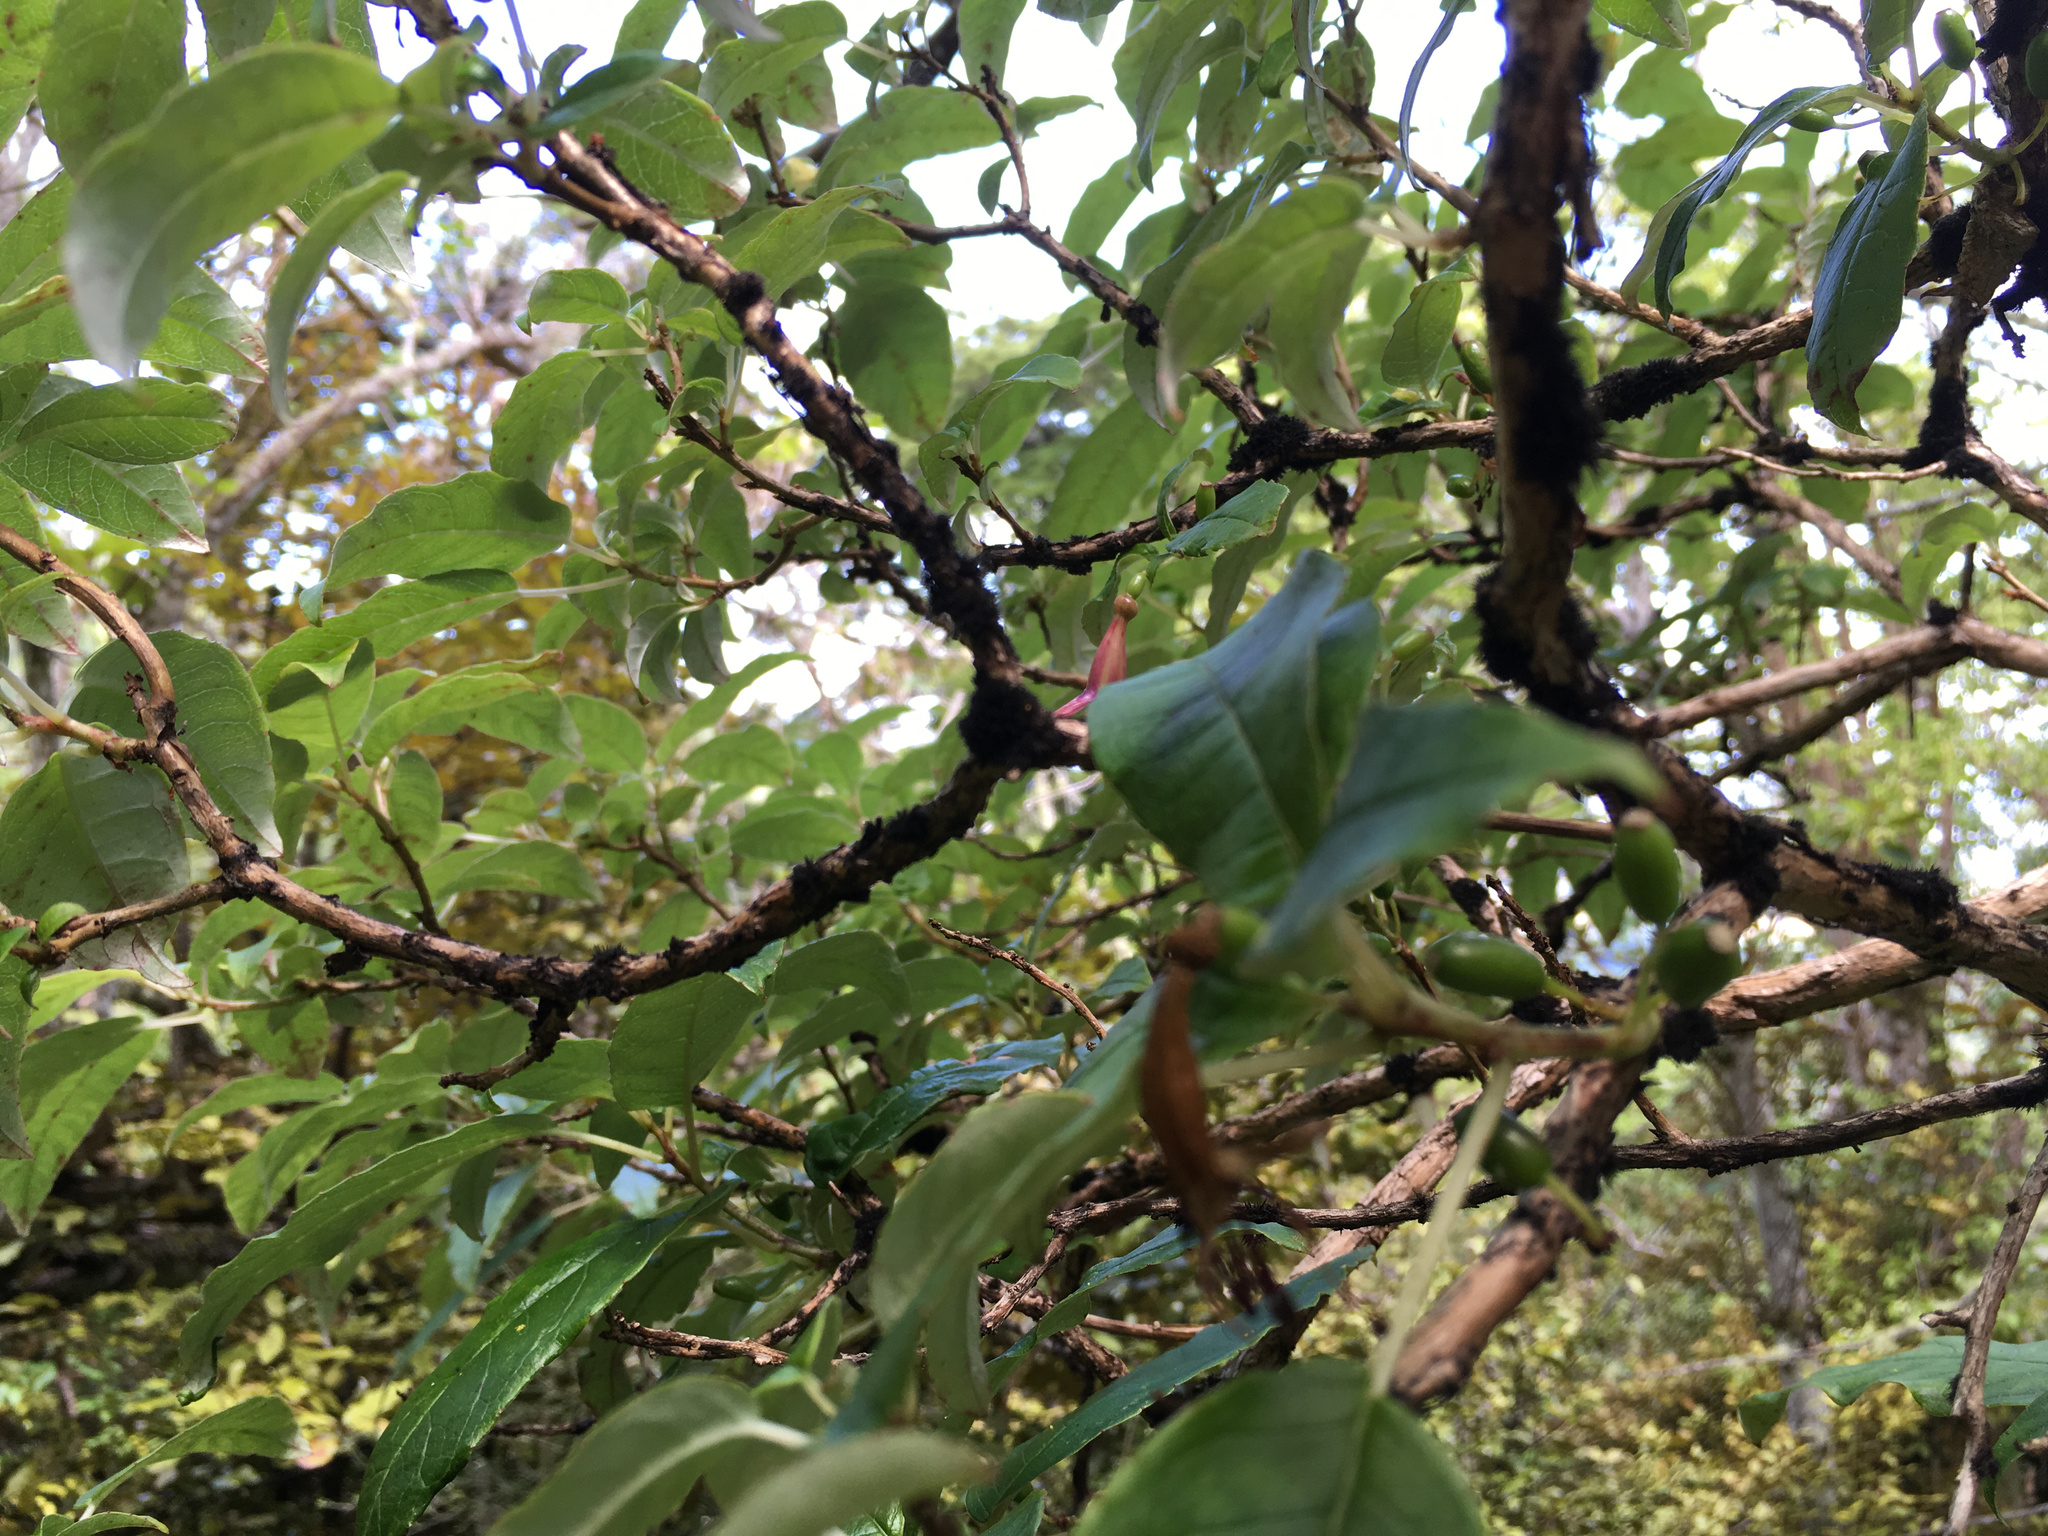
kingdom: Plantae
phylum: Tracheophyta
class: Magnoliopsida
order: Myrtales
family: Onagraceae
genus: Fuchsia
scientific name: Fuchsia excorticata
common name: Tree fuchsia
